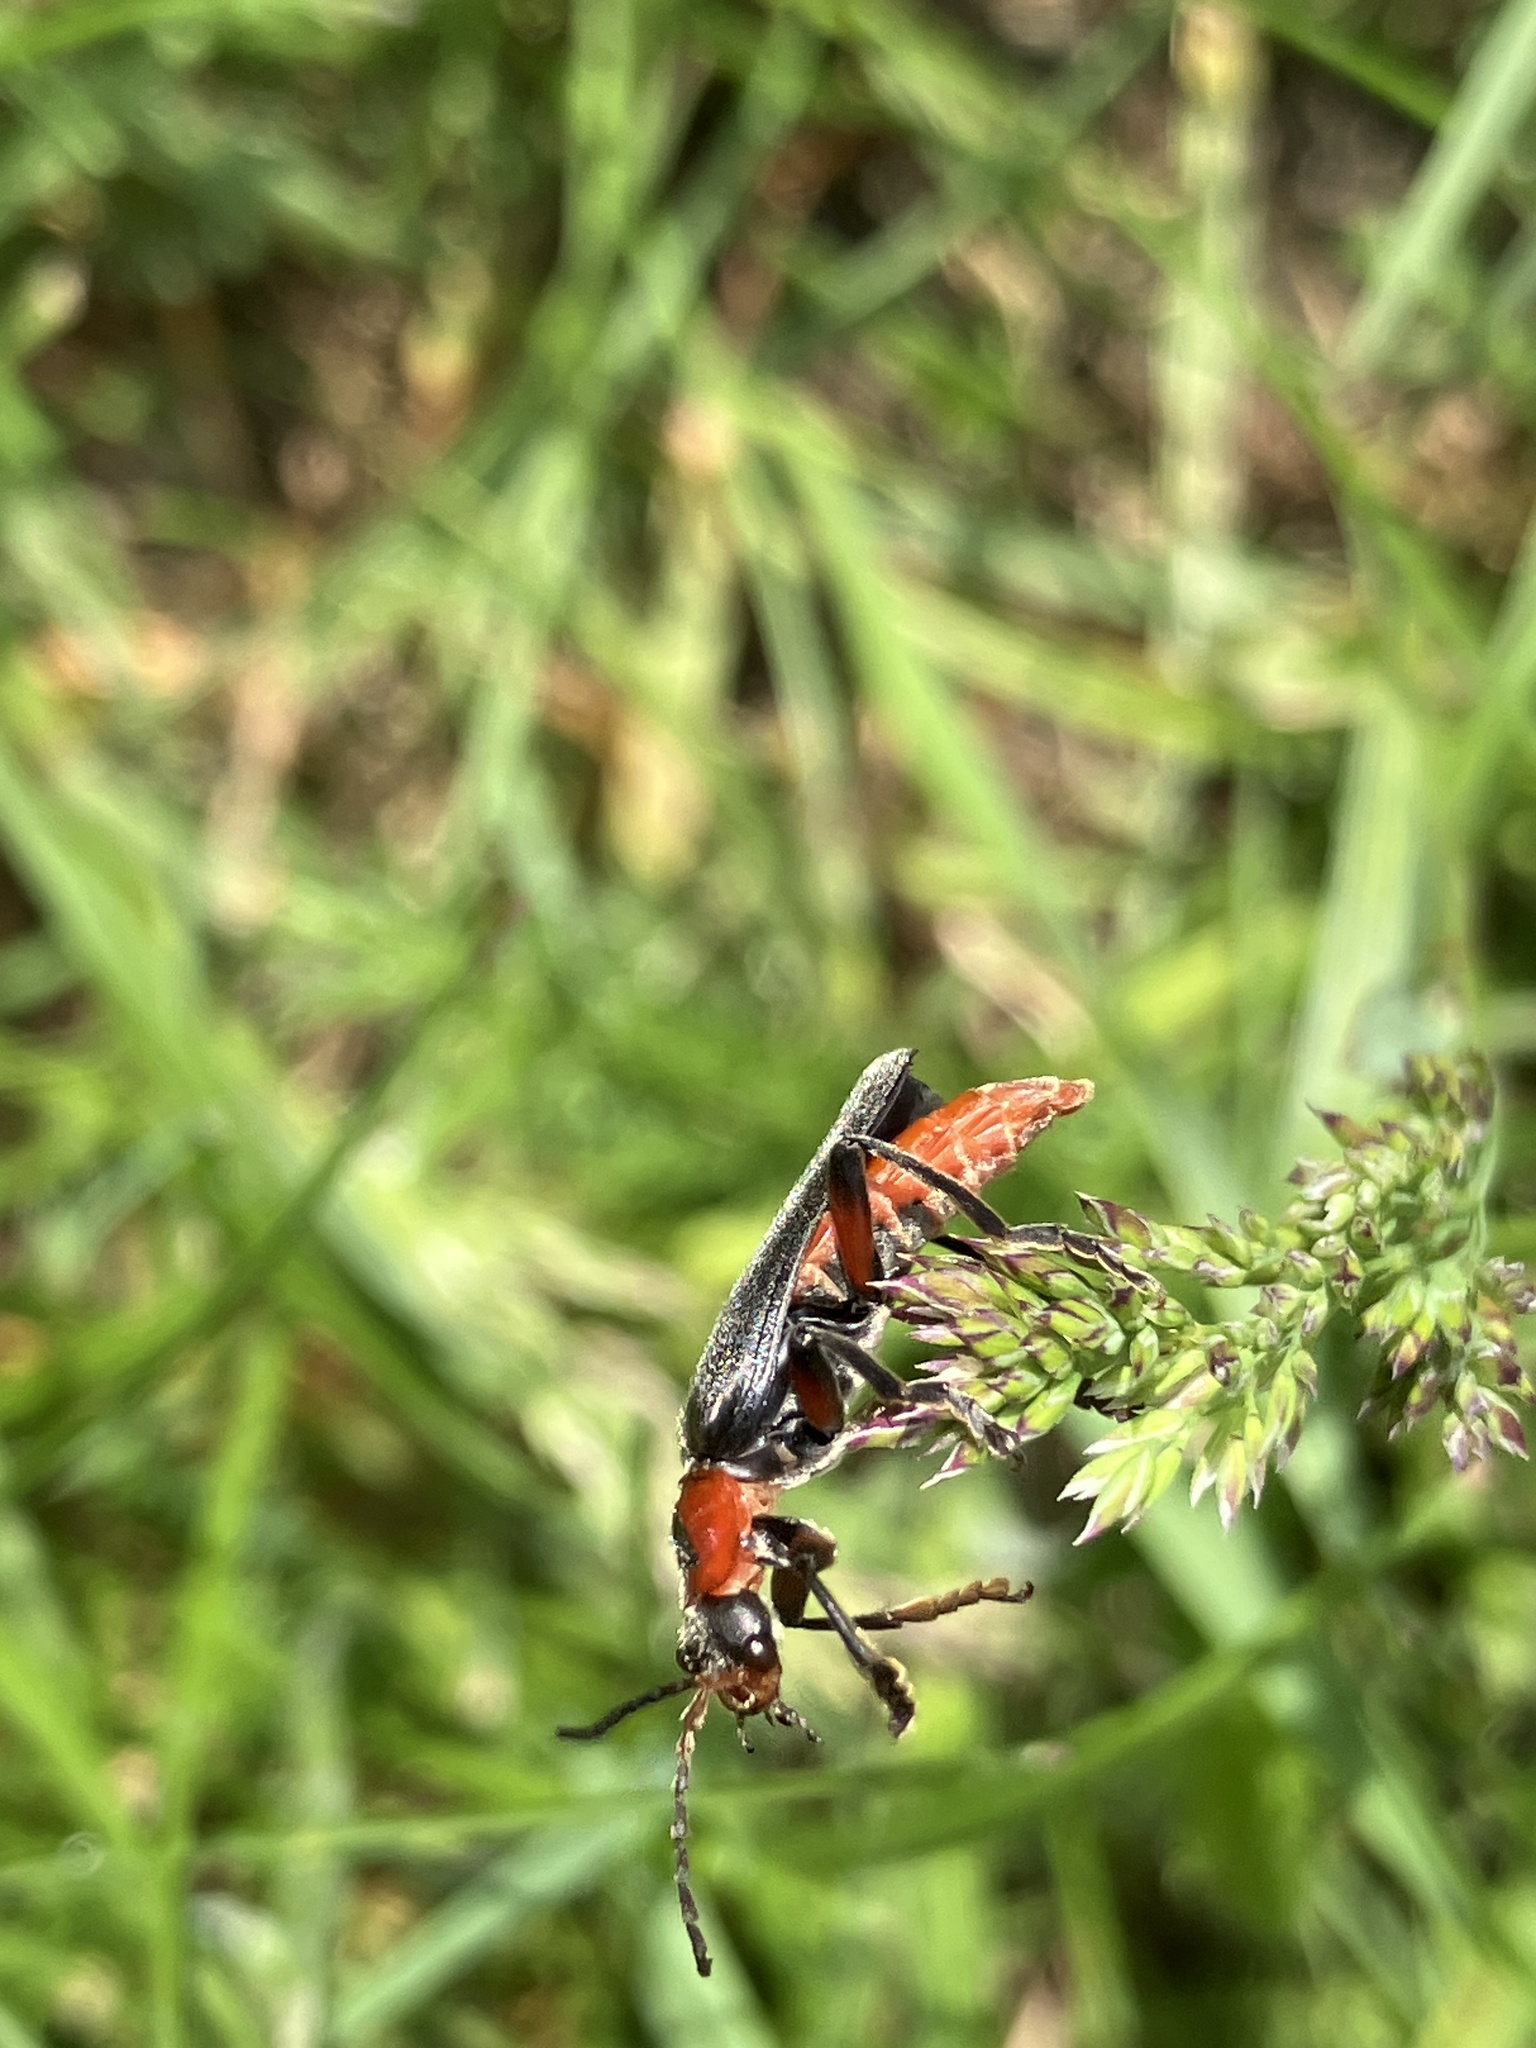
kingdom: Animalia
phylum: Arthropoda
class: Insecta
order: Coleoptera
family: Cantharidae
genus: Cantharis
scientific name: Cantharis rustica
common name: Soldier beetle
